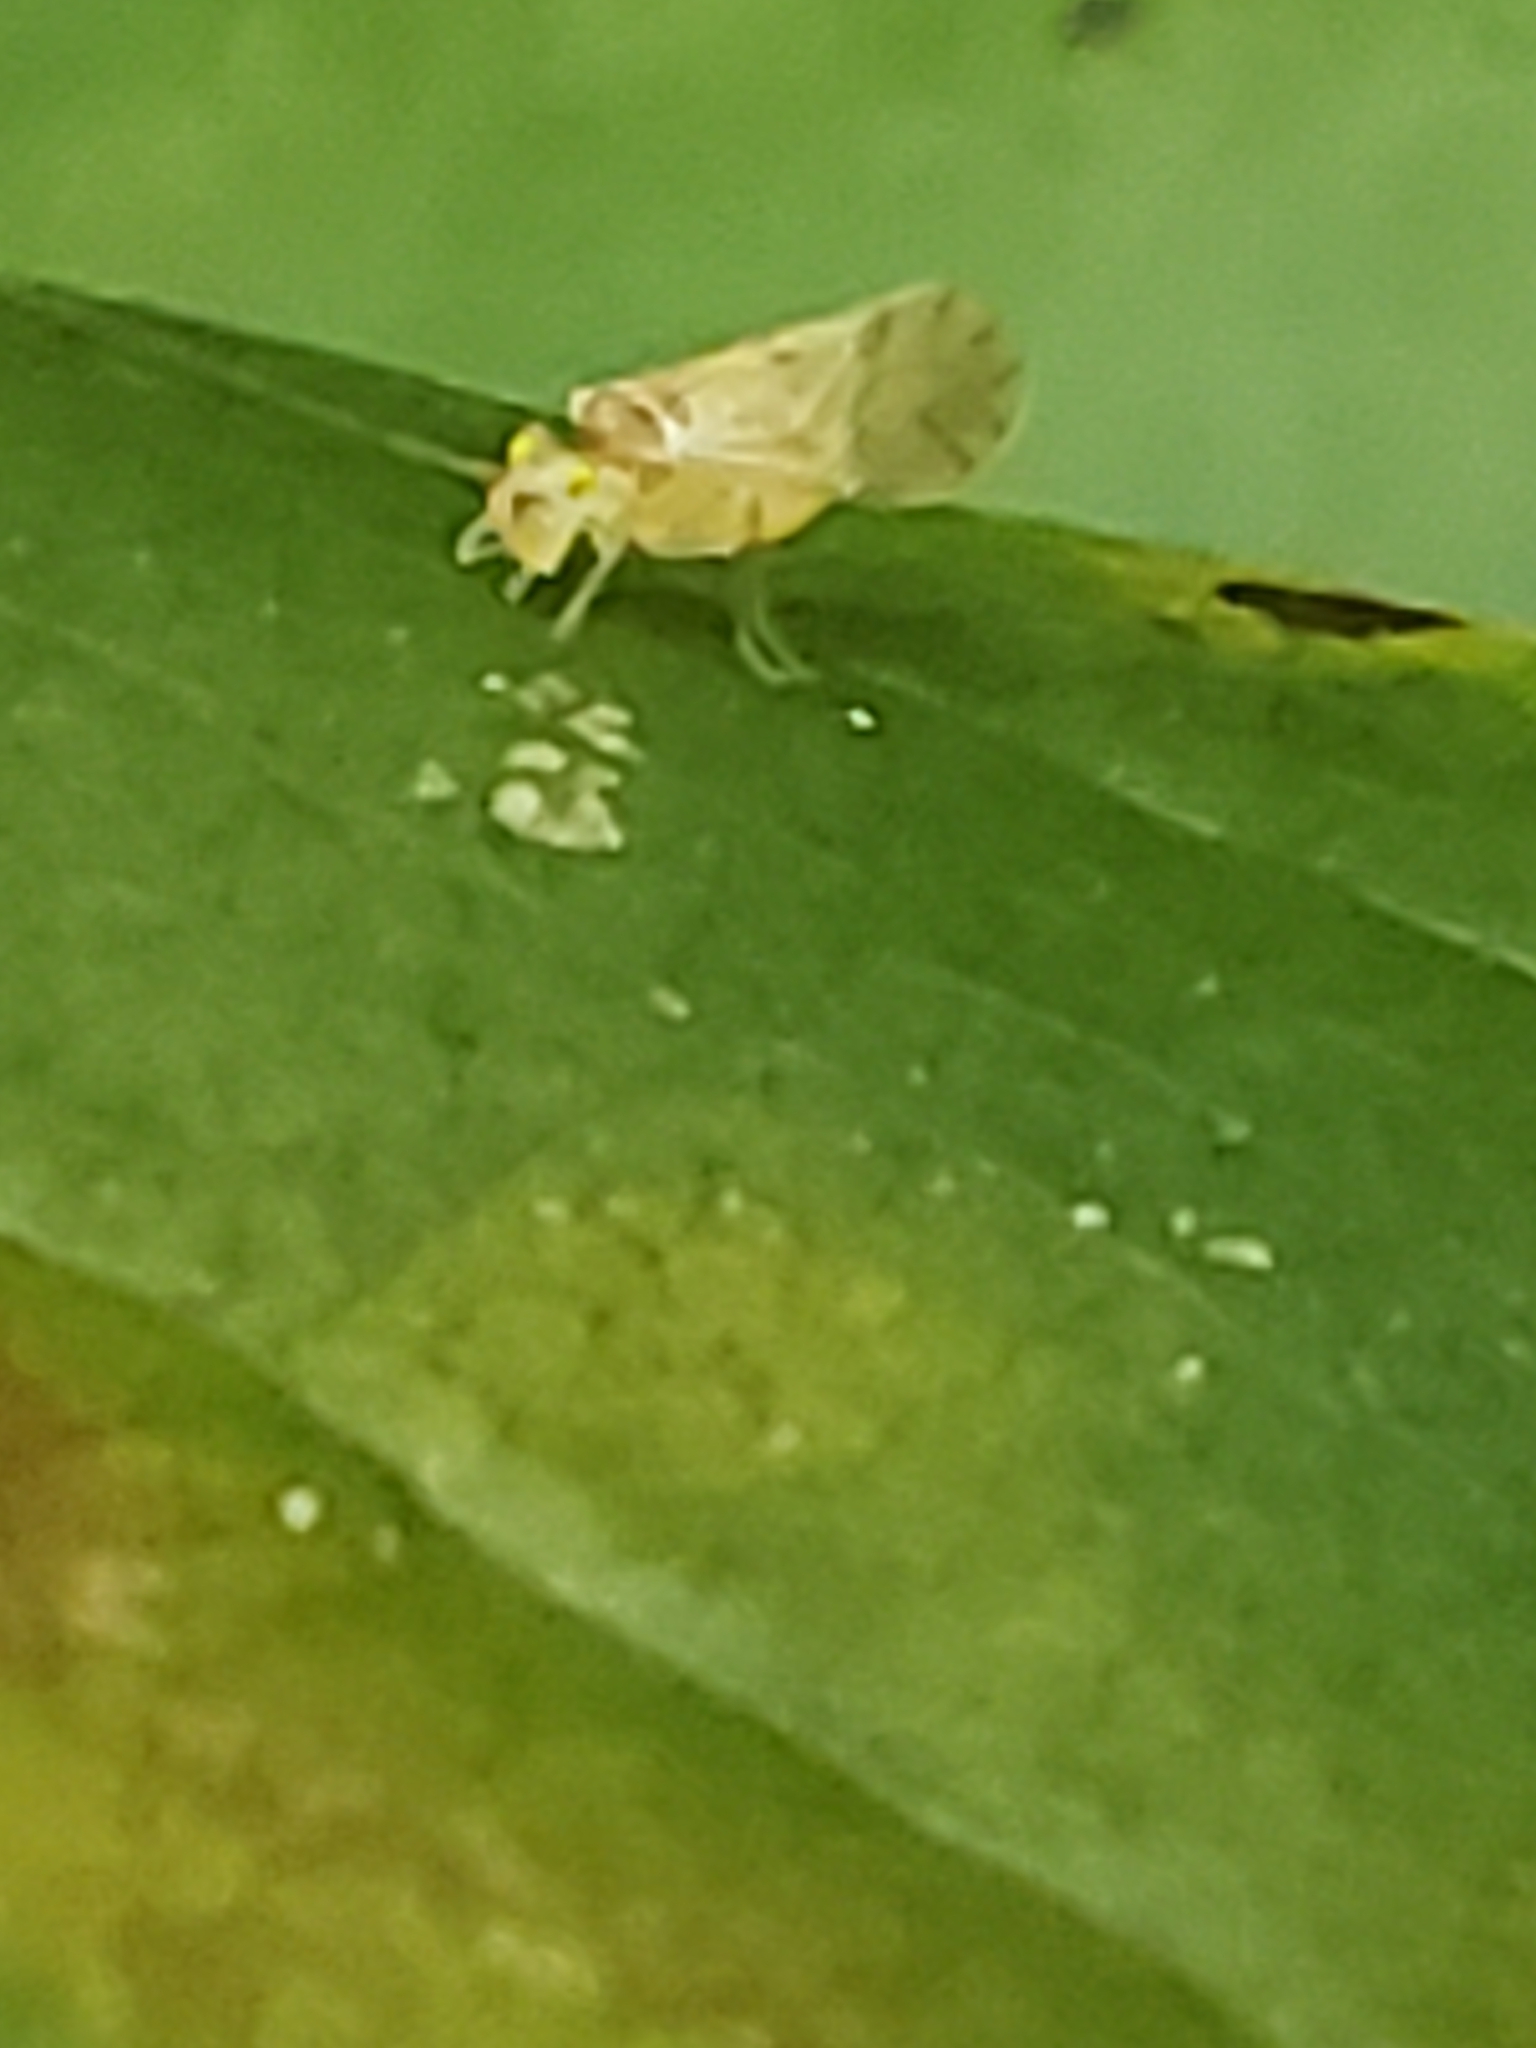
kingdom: Animalia
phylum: Arthropoda
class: Insecta
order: Psocodea
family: Paracaeciliidae
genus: Xanthocaecilius
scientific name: Xanthocaecilius sommermanae
